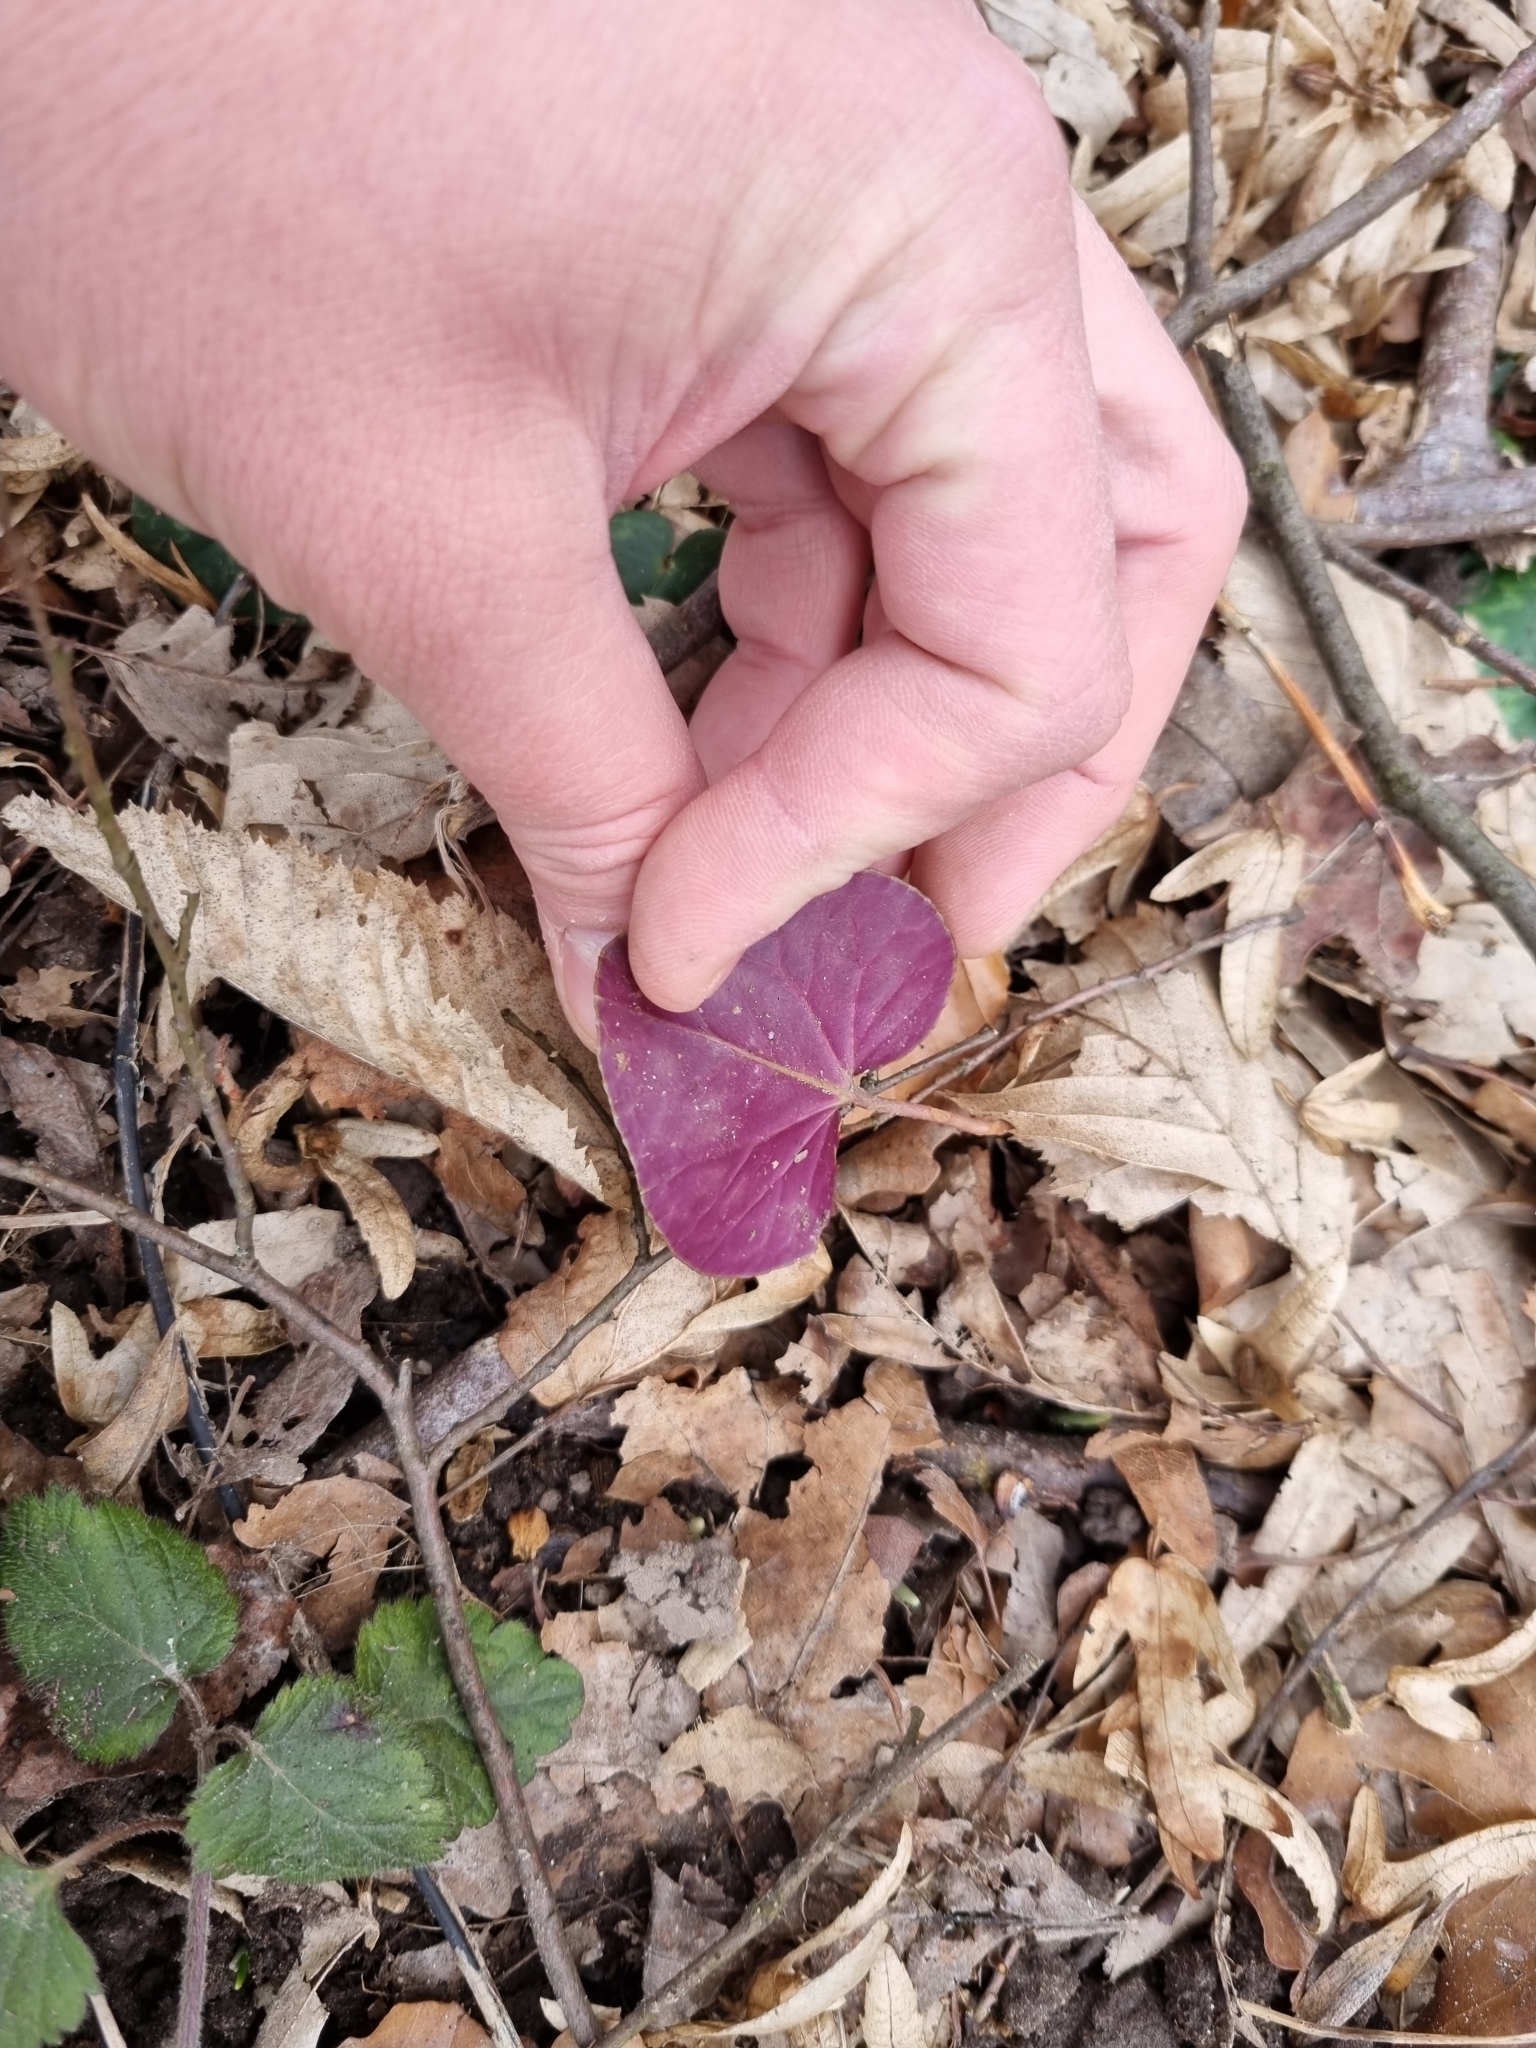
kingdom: Plantae
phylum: Tracheophyta
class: Magnoliopsida
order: Ericales
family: Primulaceae
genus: Cyclamen
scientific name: Cyclamen purpurascens
